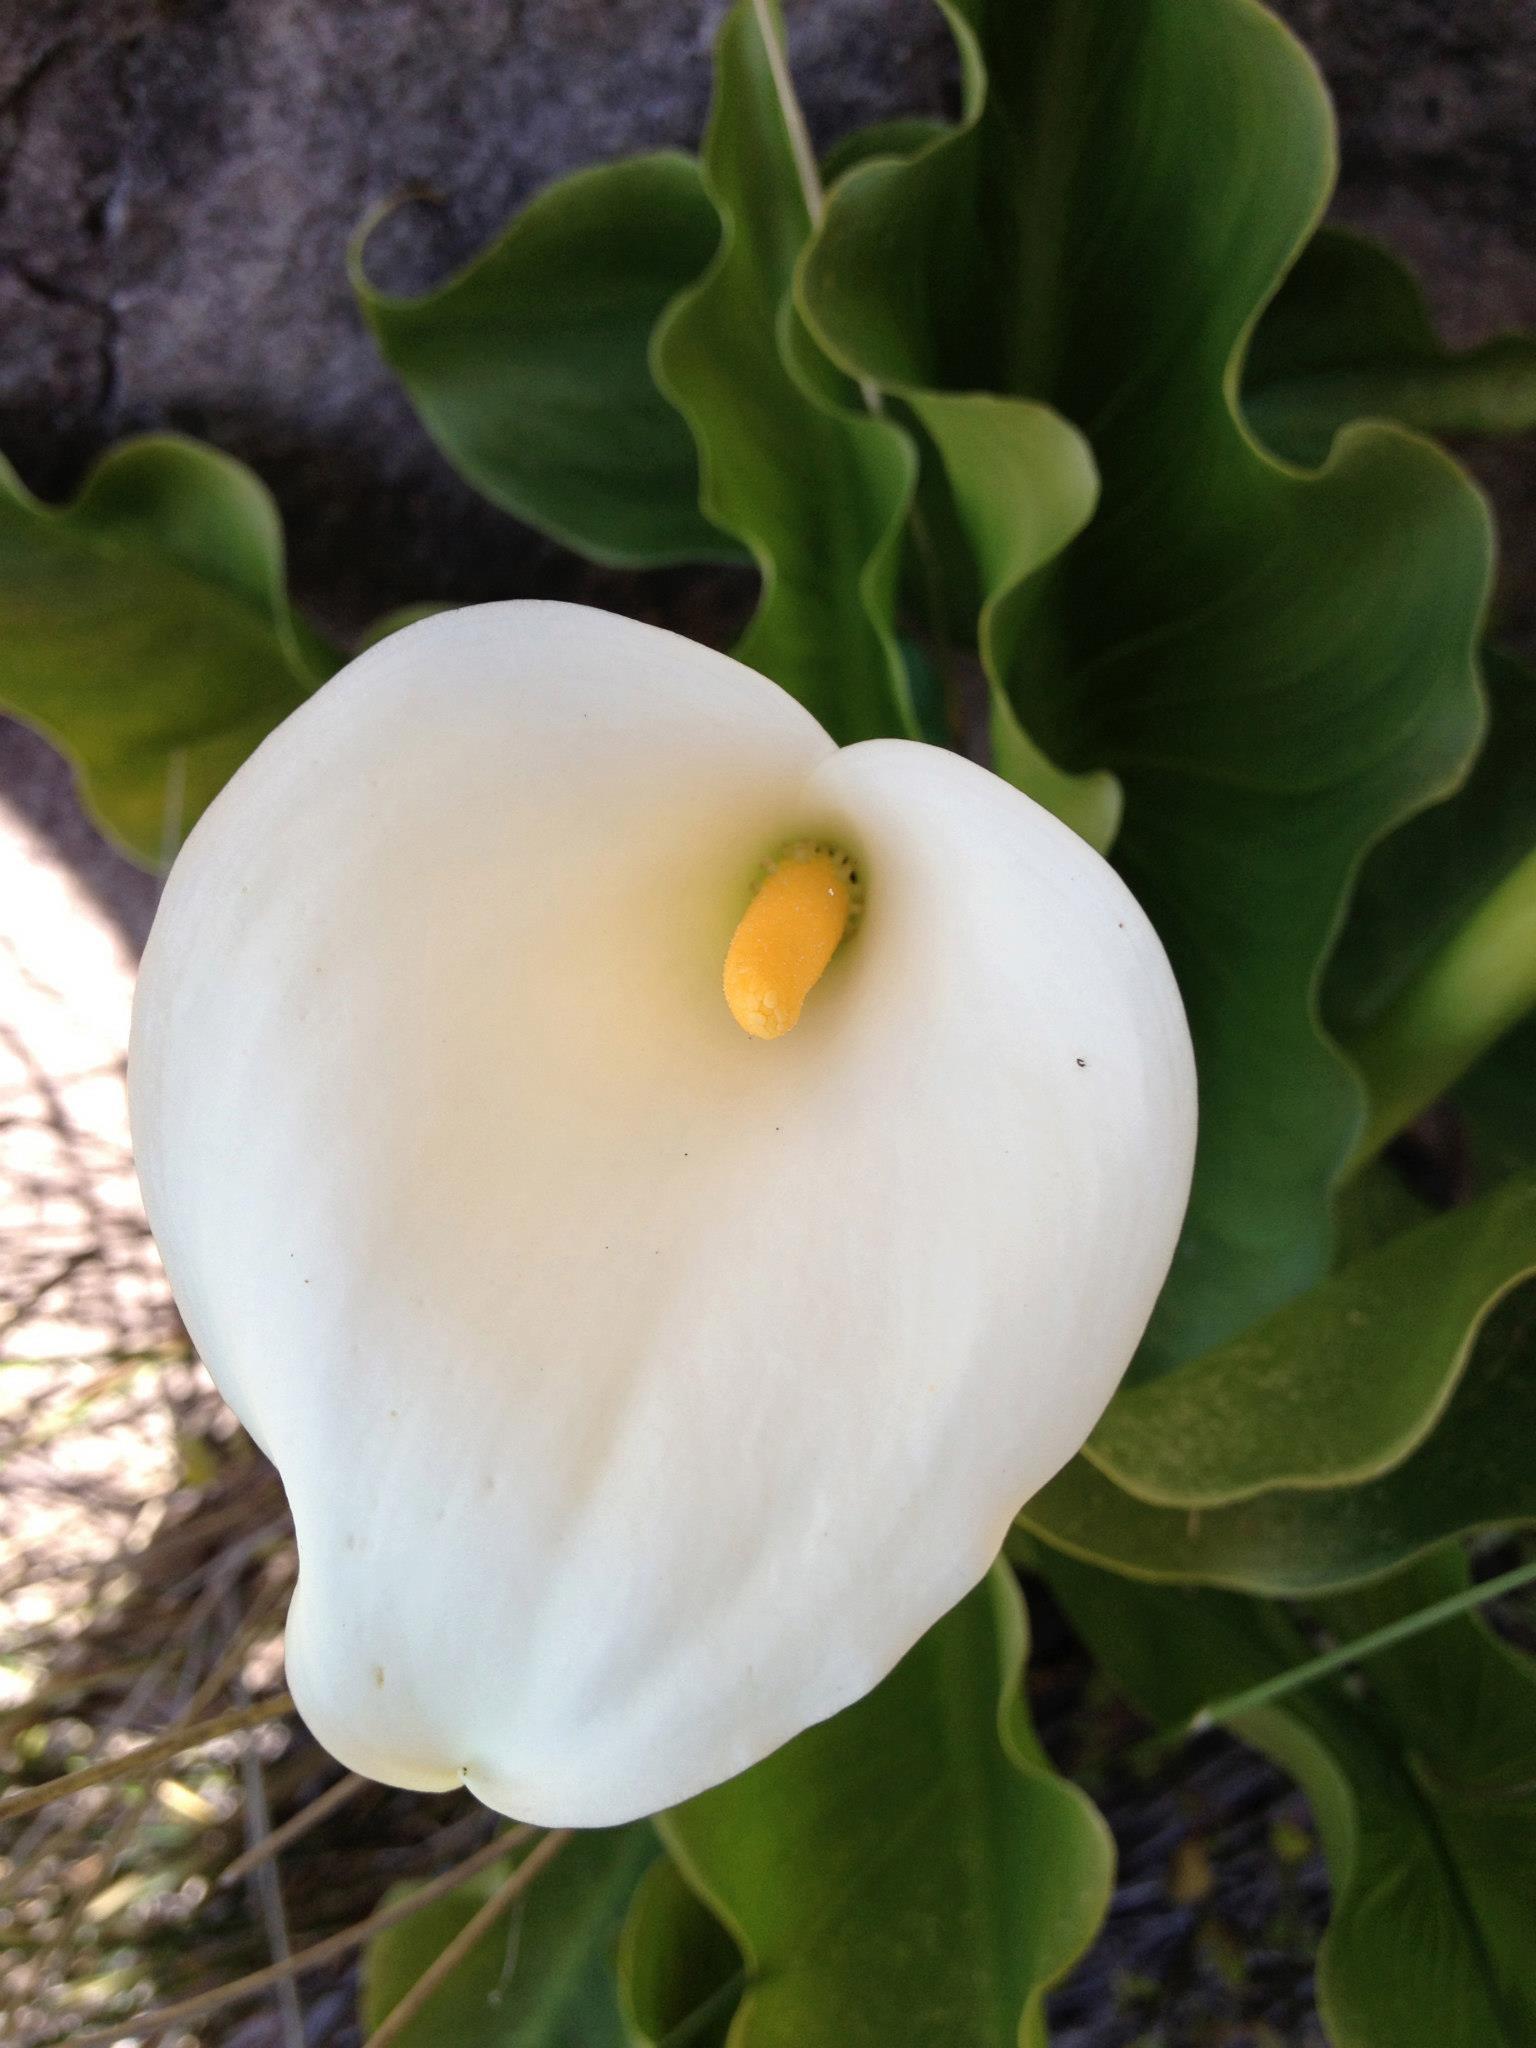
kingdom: Plantae
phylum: Tracheophyta
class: Liliopsida
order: Alismatales
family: Araceae
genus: Zantedeschia
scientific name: Zantedeschia aethiopica
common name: Altar-lily
